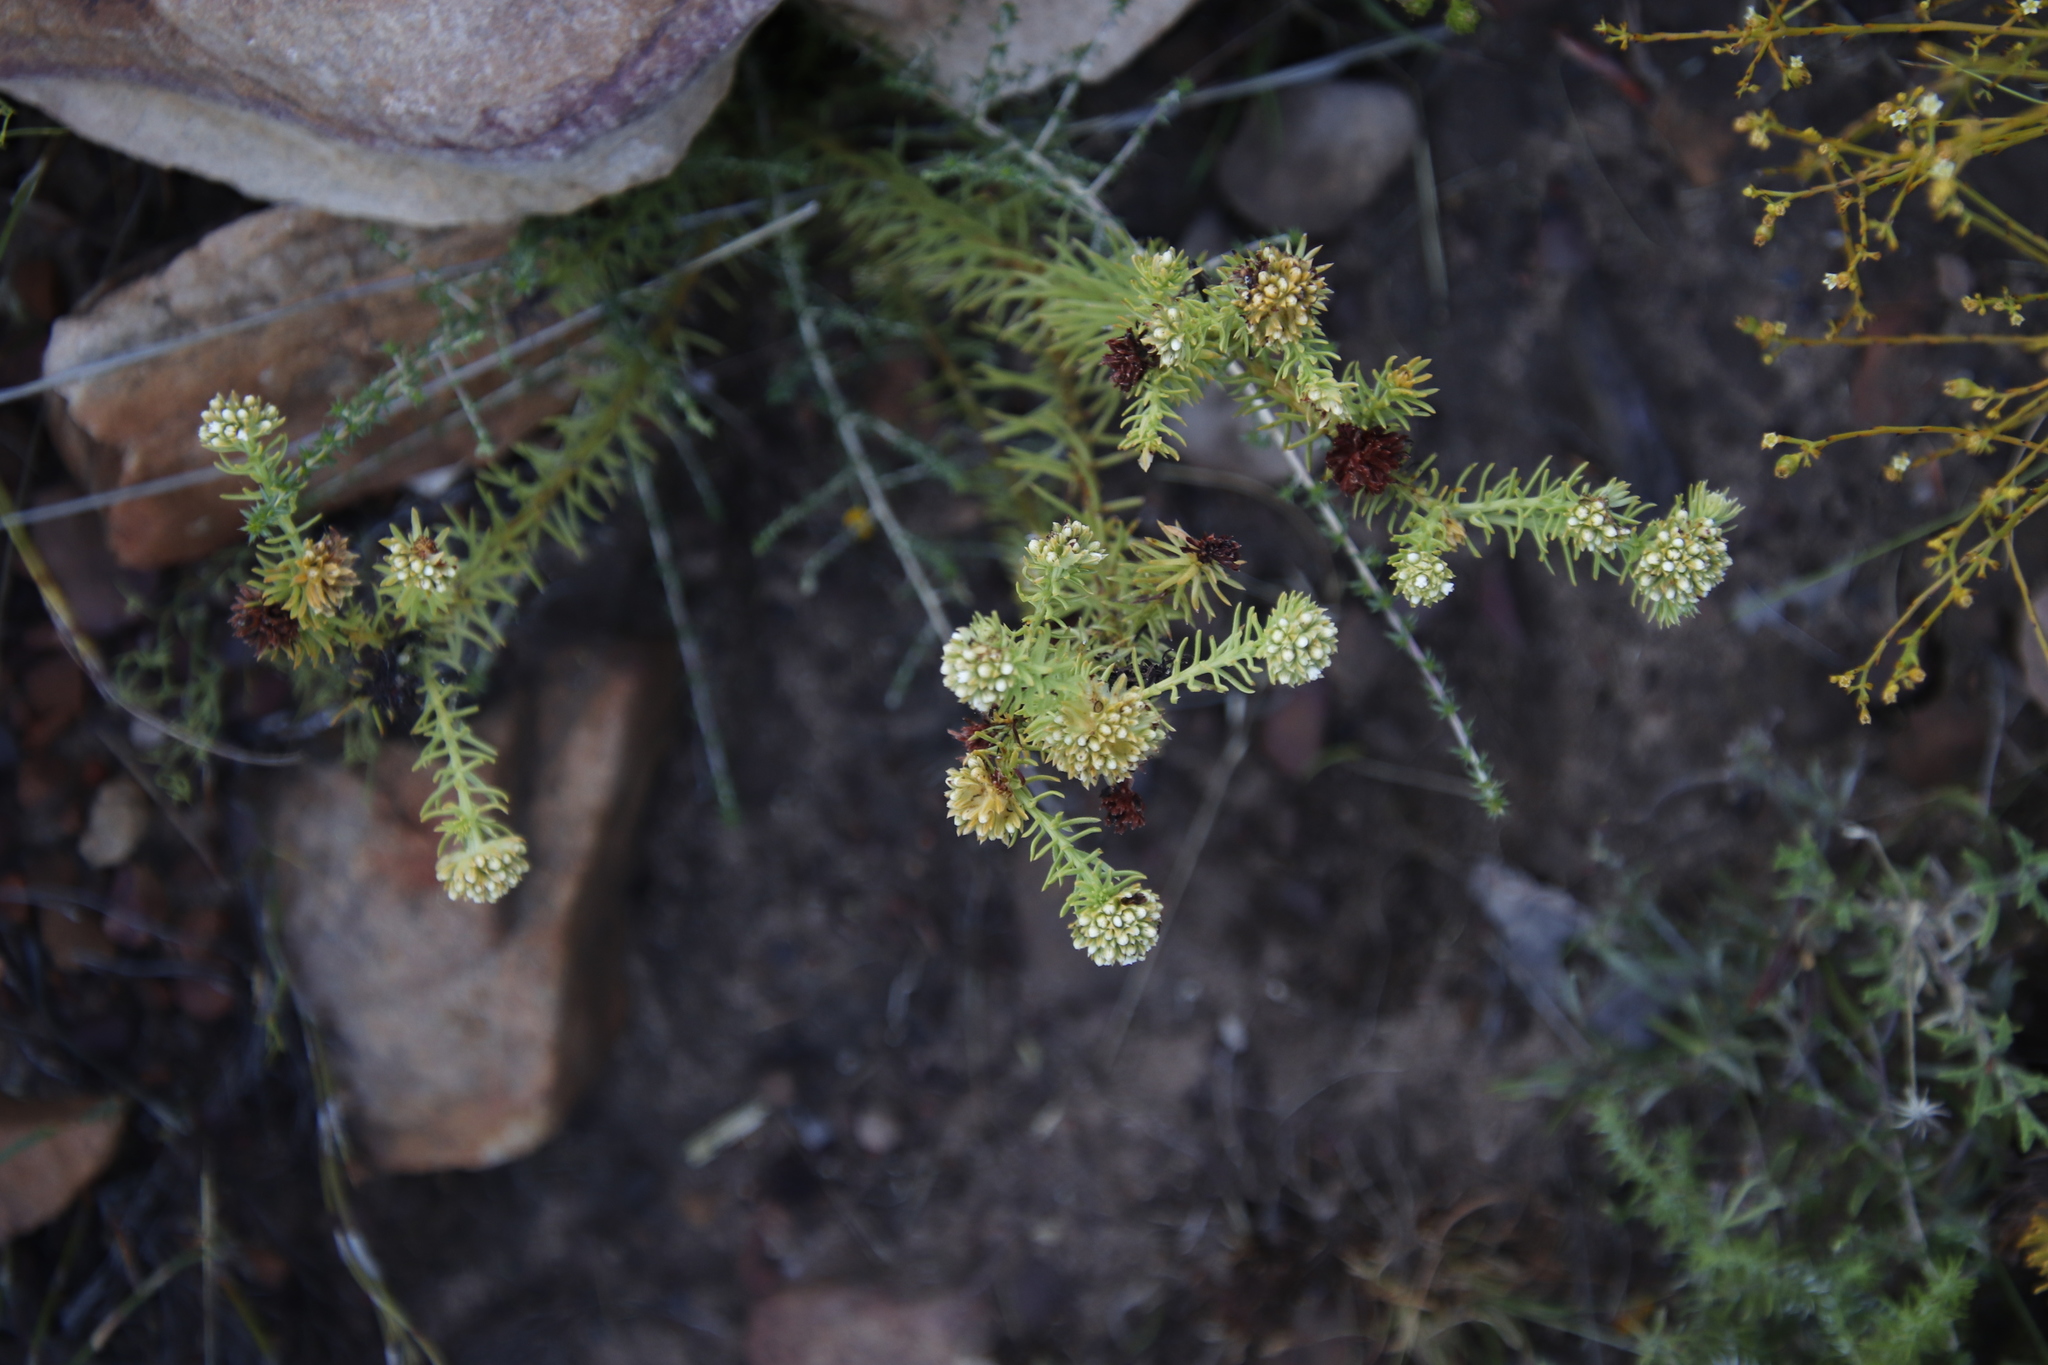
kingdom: Plantae
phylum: Tracheophyta
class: Magnoliopsida
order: Santalales
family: Thesiaceae
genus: Thesium
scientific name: Thesium scabrum
